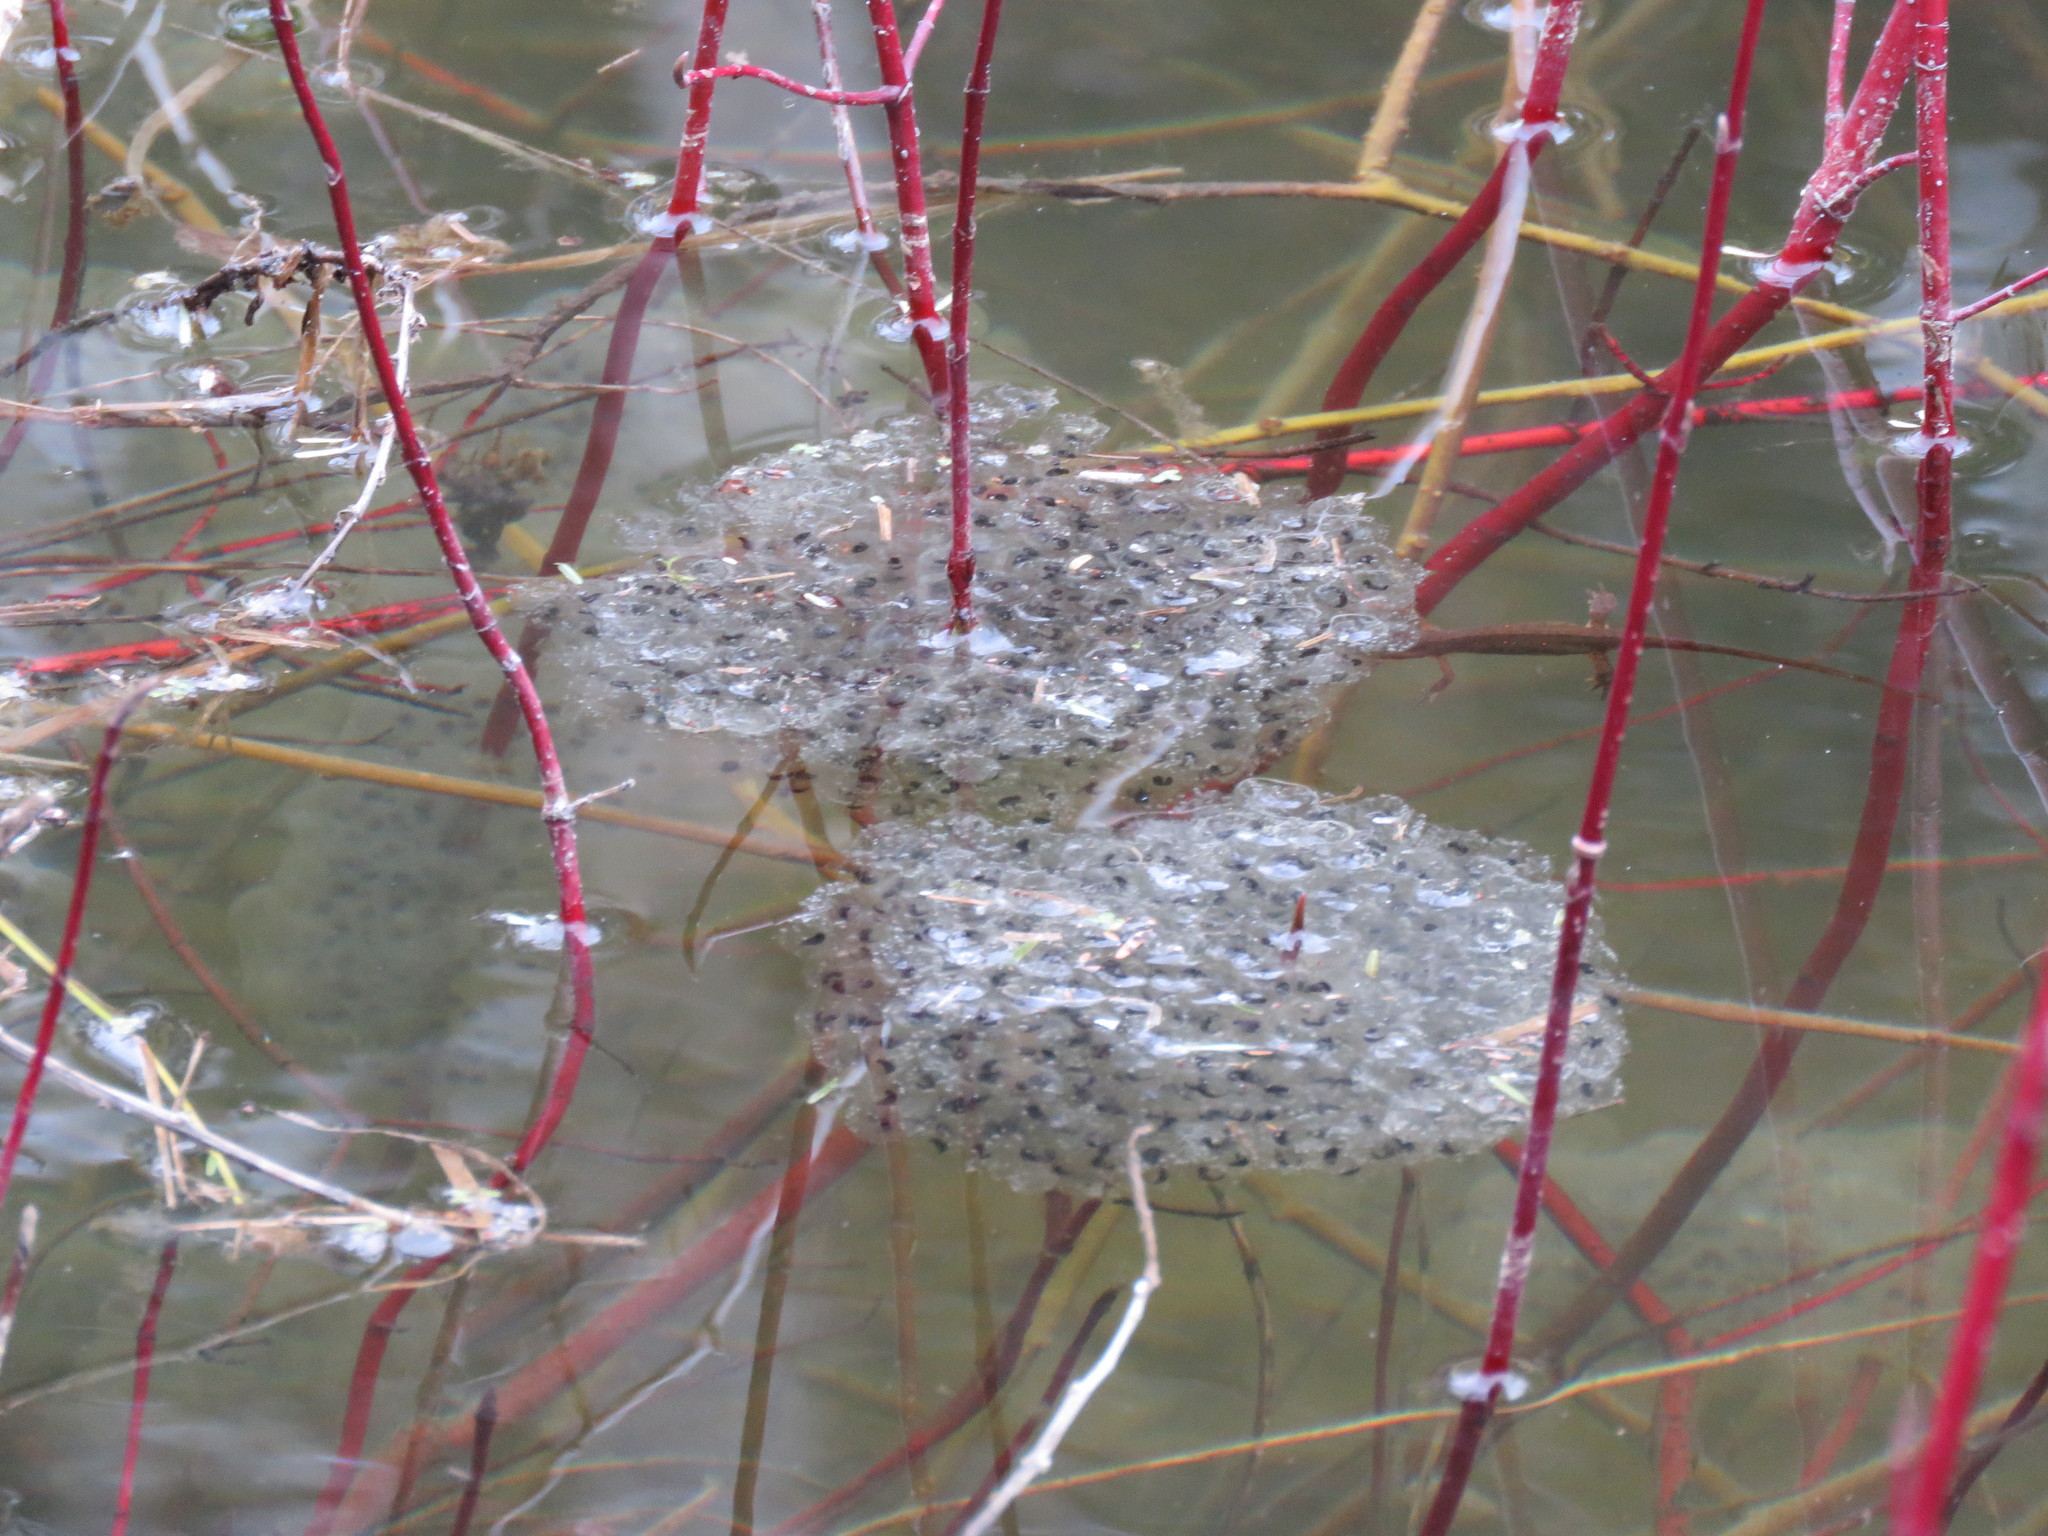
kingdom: Animalia
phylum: Chordata
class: Amphibia
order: Anura
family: Ranidae
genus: Lithobates
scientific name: Lithobates sylvaticus
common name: Wood frog
